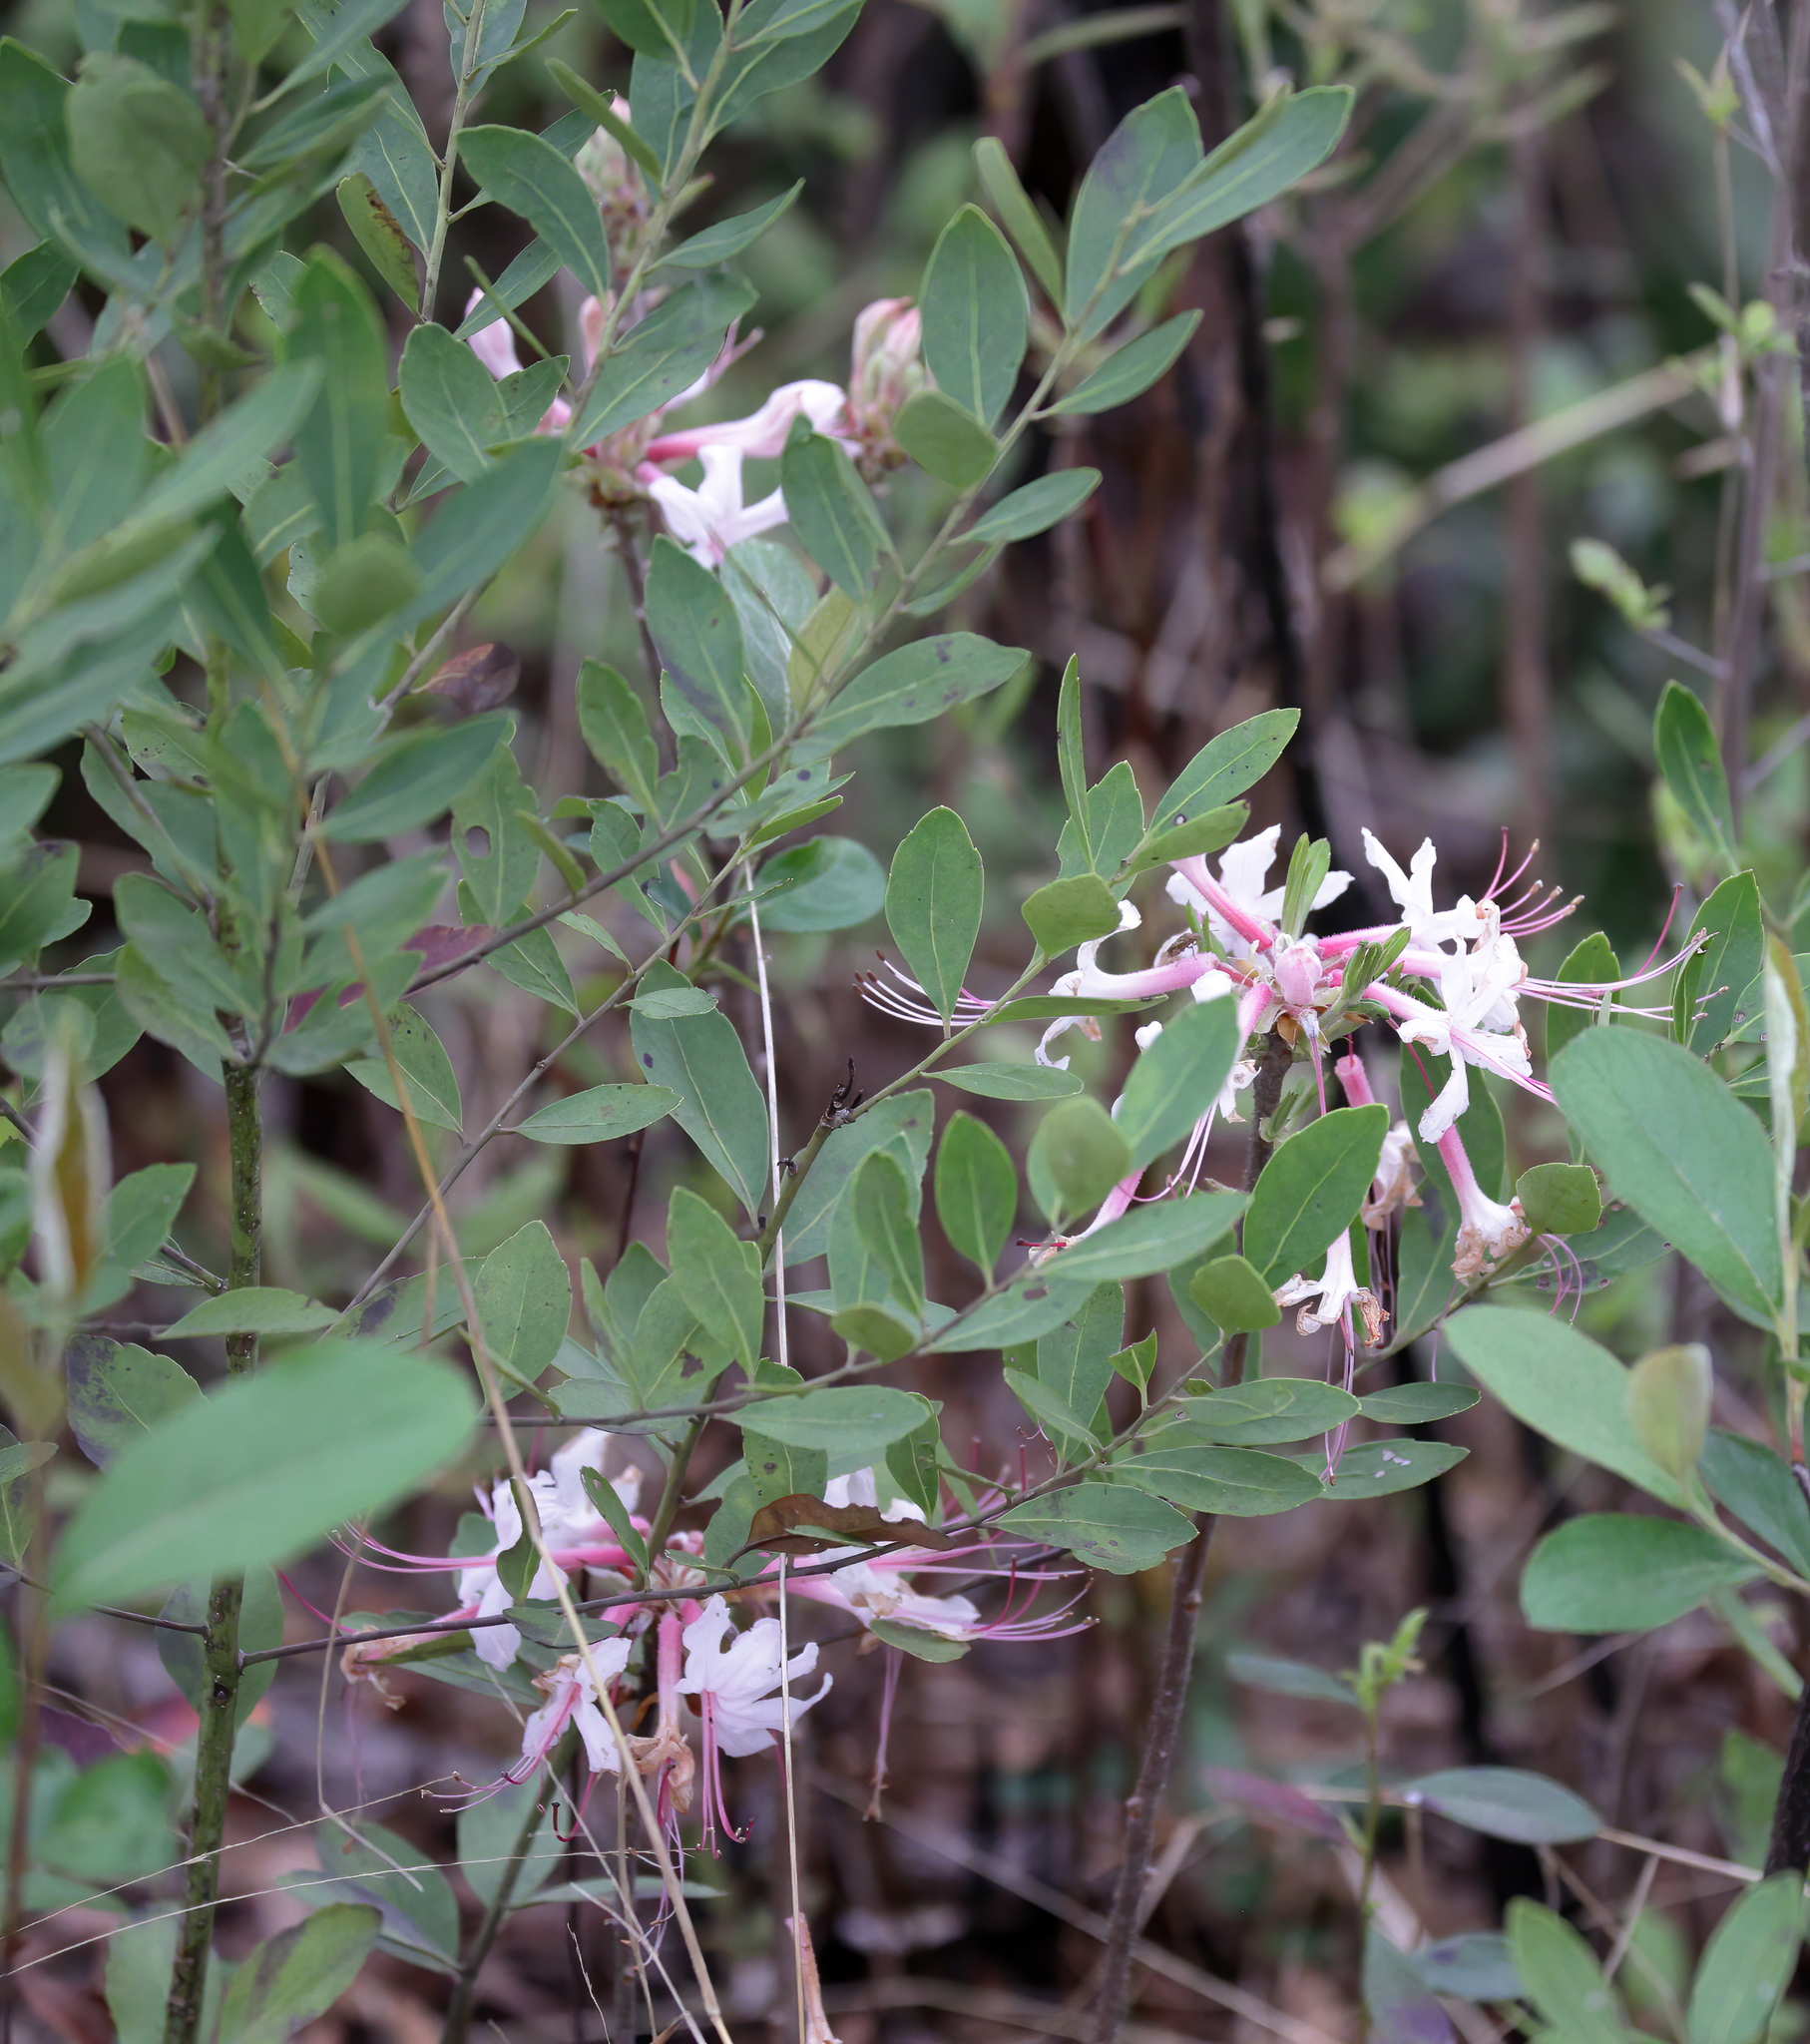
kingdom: Plantae
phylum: Tracheophyta
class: Magnoliopsida
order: Ericales
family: Ericaceae
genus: Rhododendron
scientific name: Rhododendron canescens
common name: Mountain azalea
